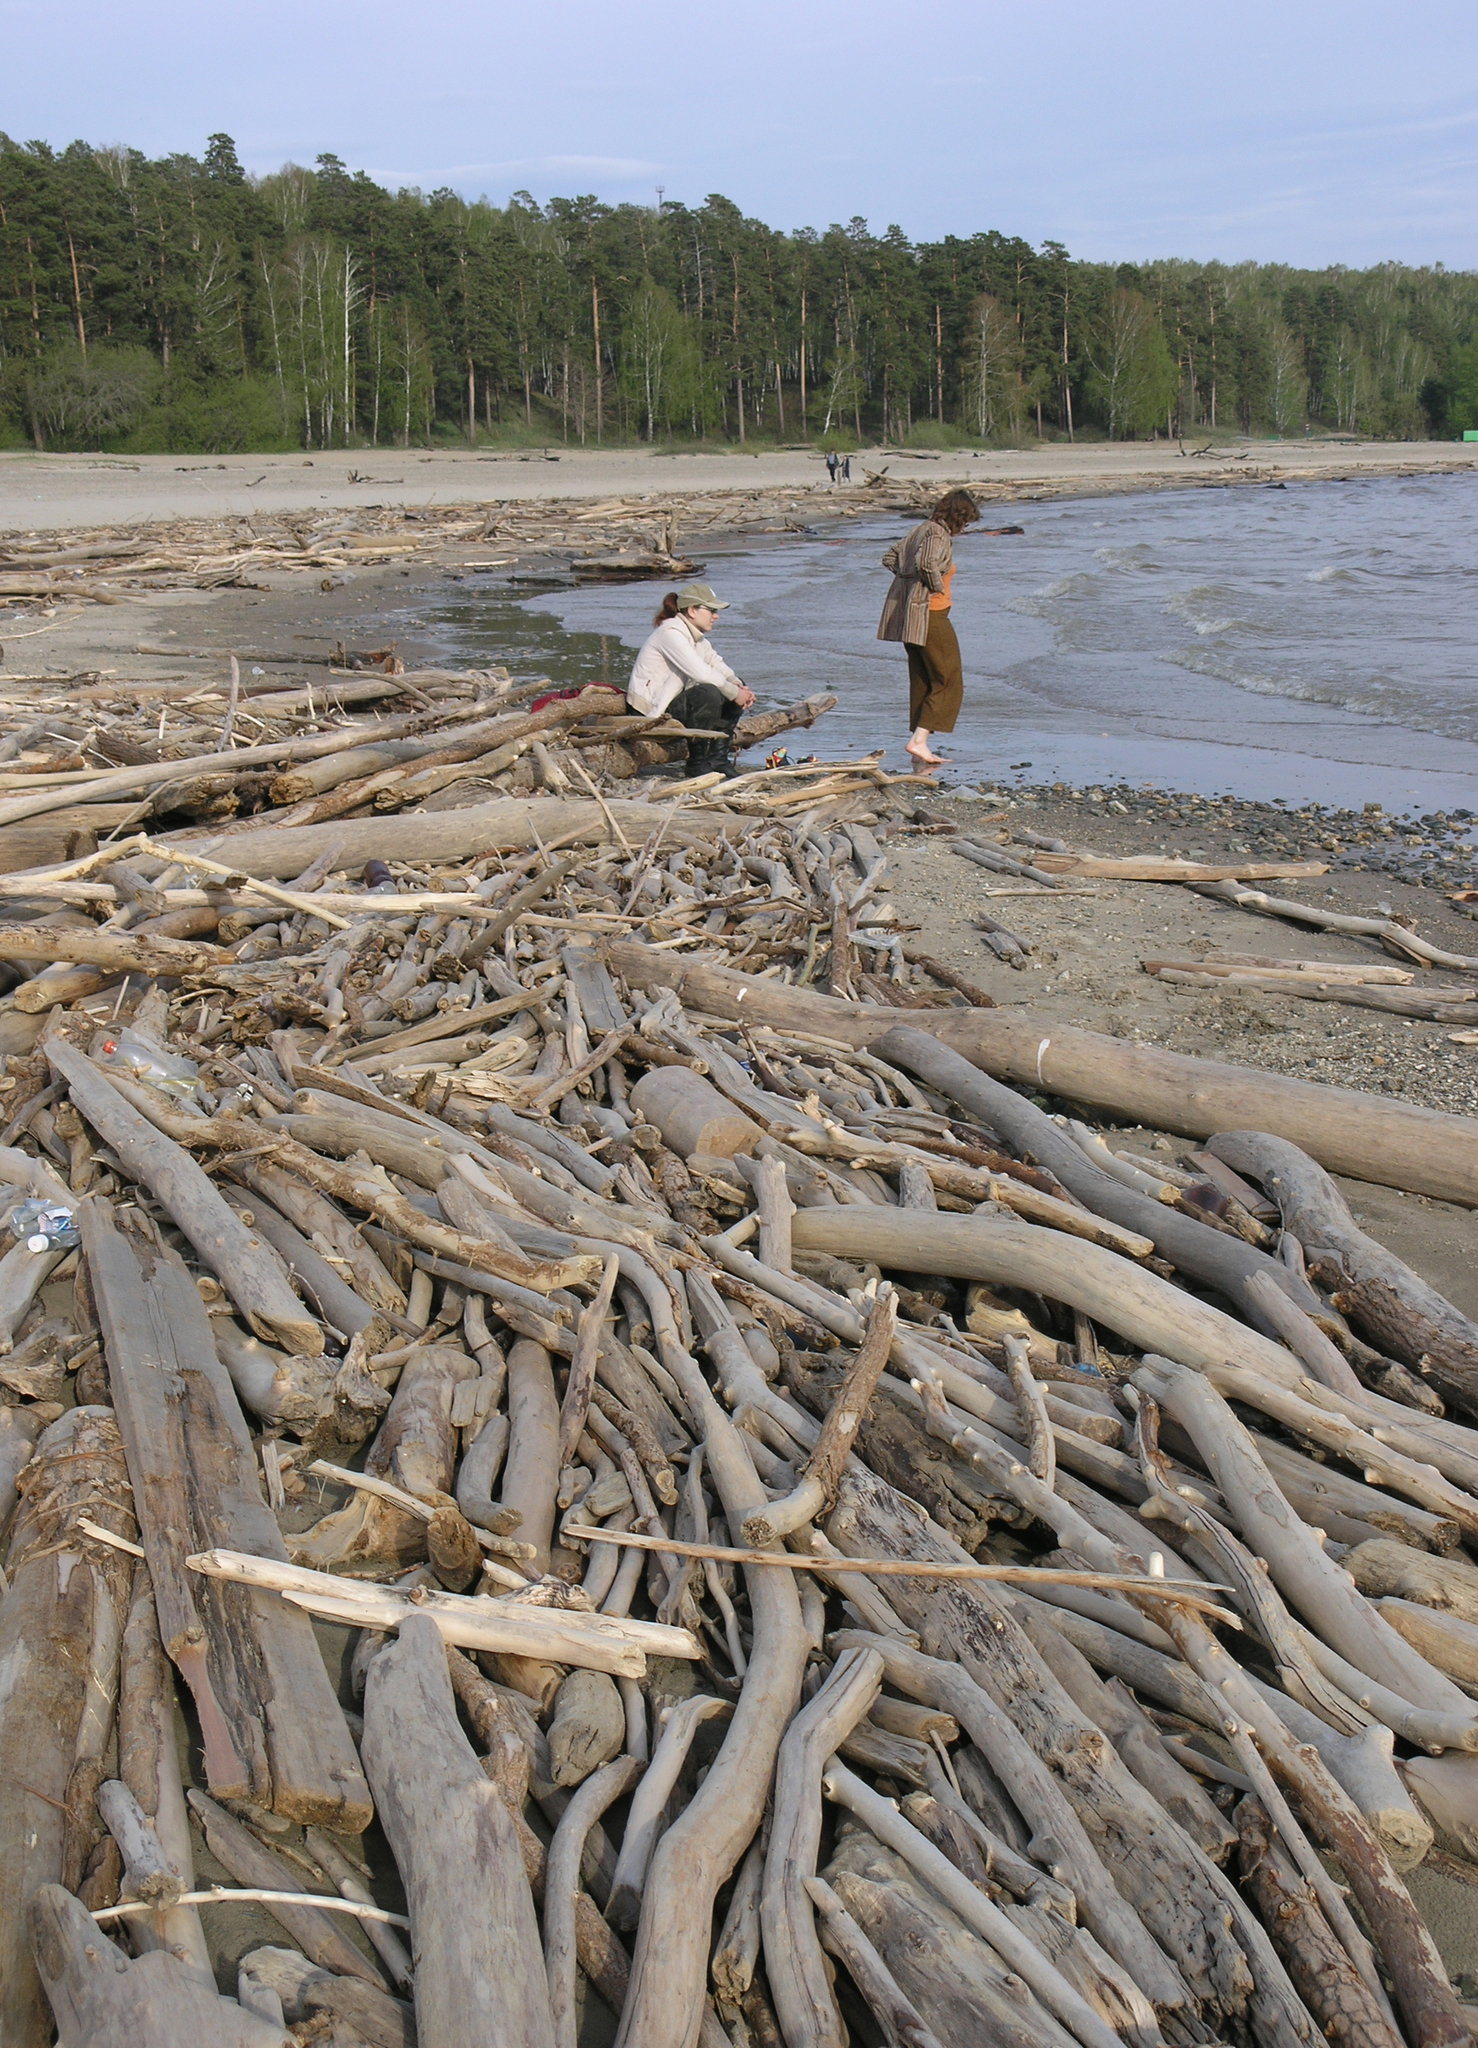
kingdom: Plantae
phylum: Tracheophyta
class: Pinopsida
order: Pinales
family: Pinaceae
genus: Pinus
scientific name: Pinus sylvestris
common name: Scots pine
